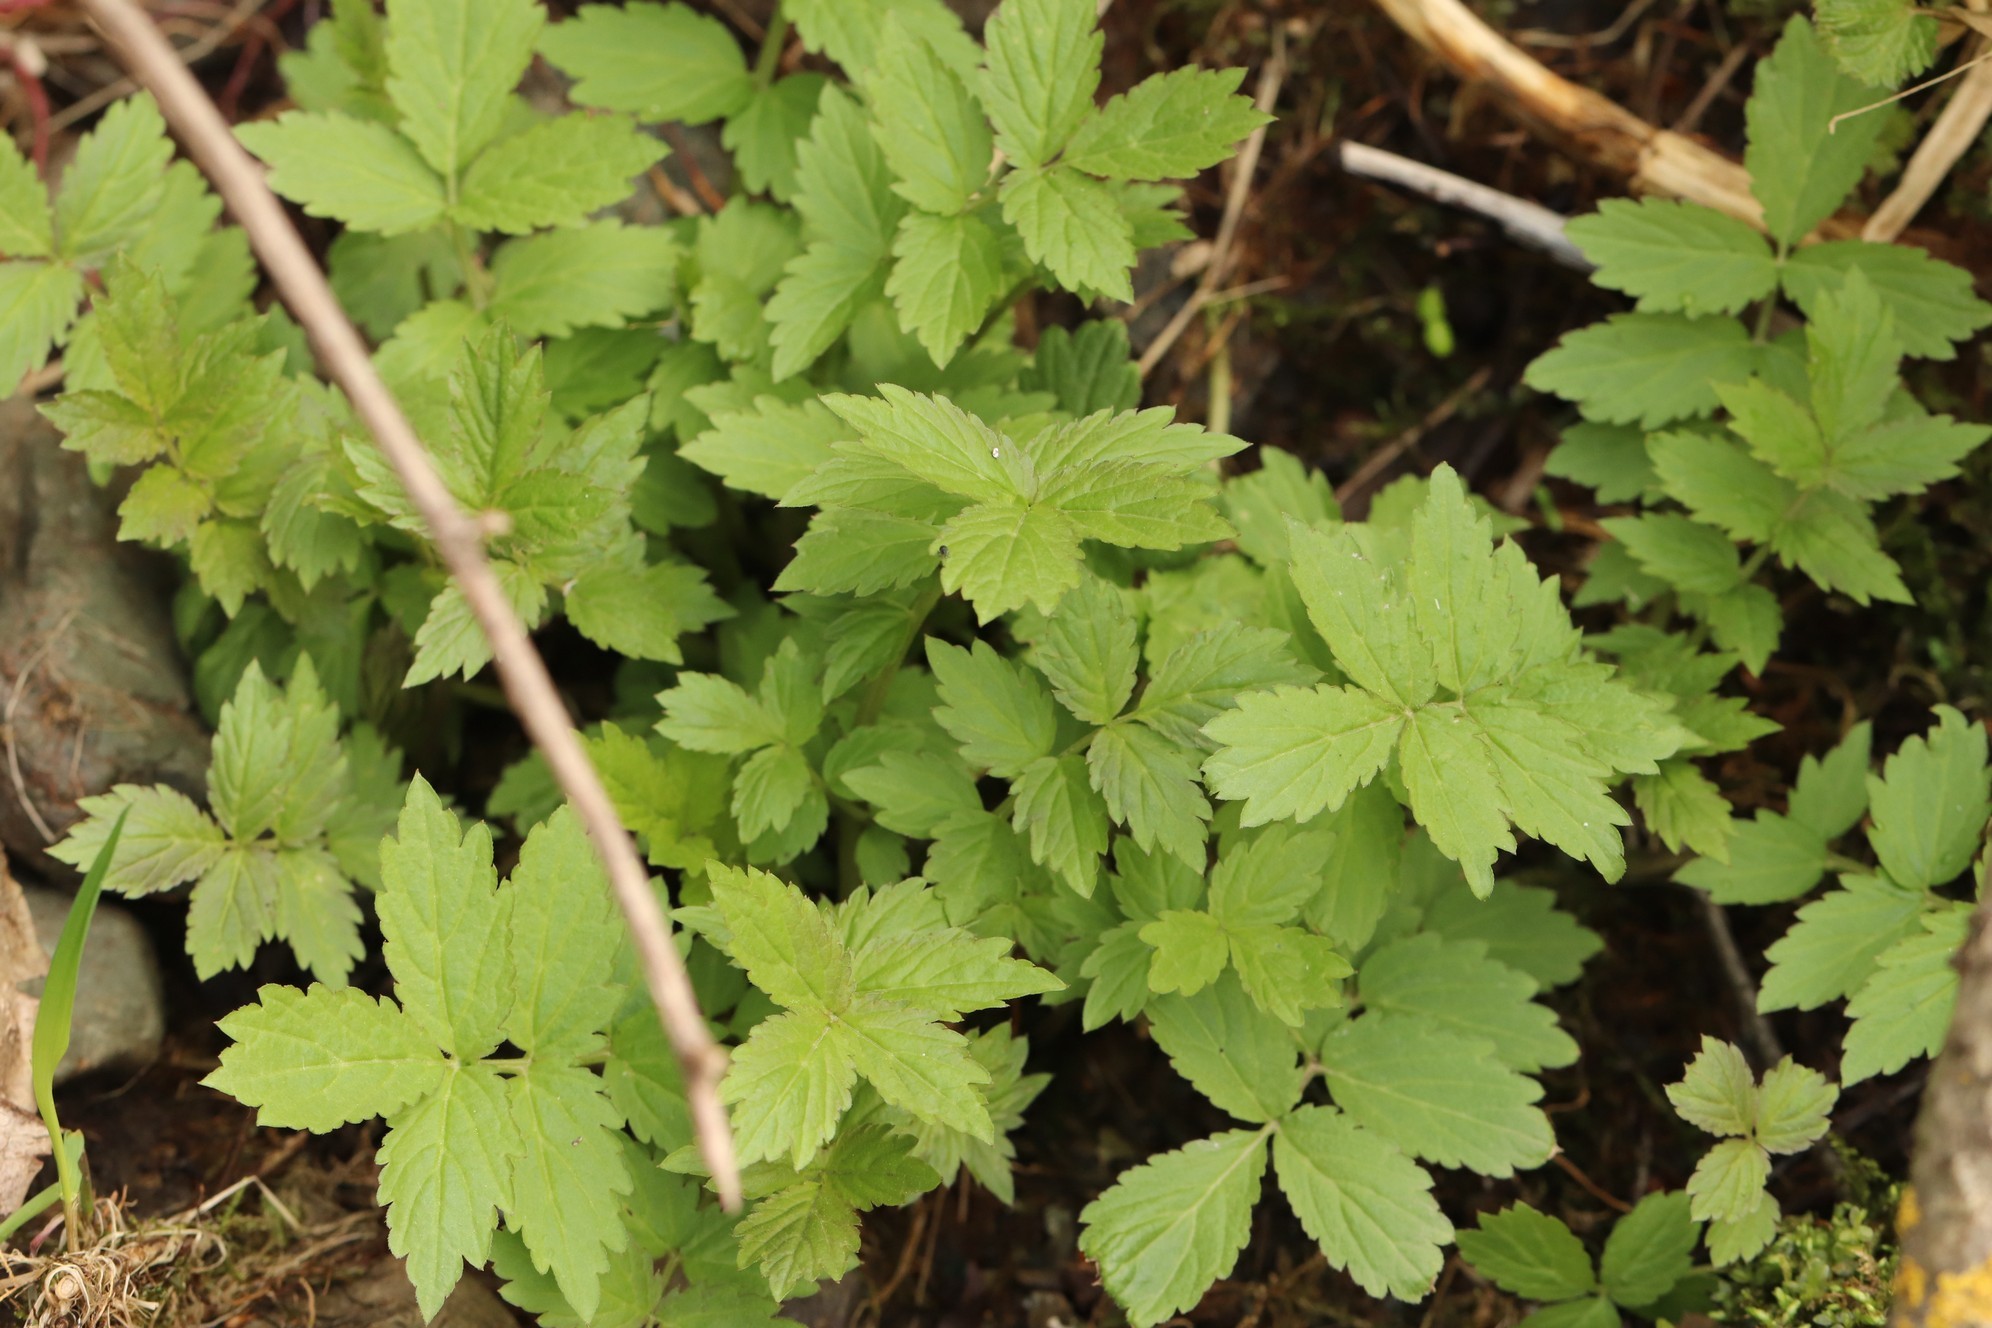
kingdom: Plantae
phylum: Tracheophyta
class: Magnoliopsida
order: Brassicales
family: Brassicaceae
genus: Cardamine
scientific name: Cardamine macrophylla
